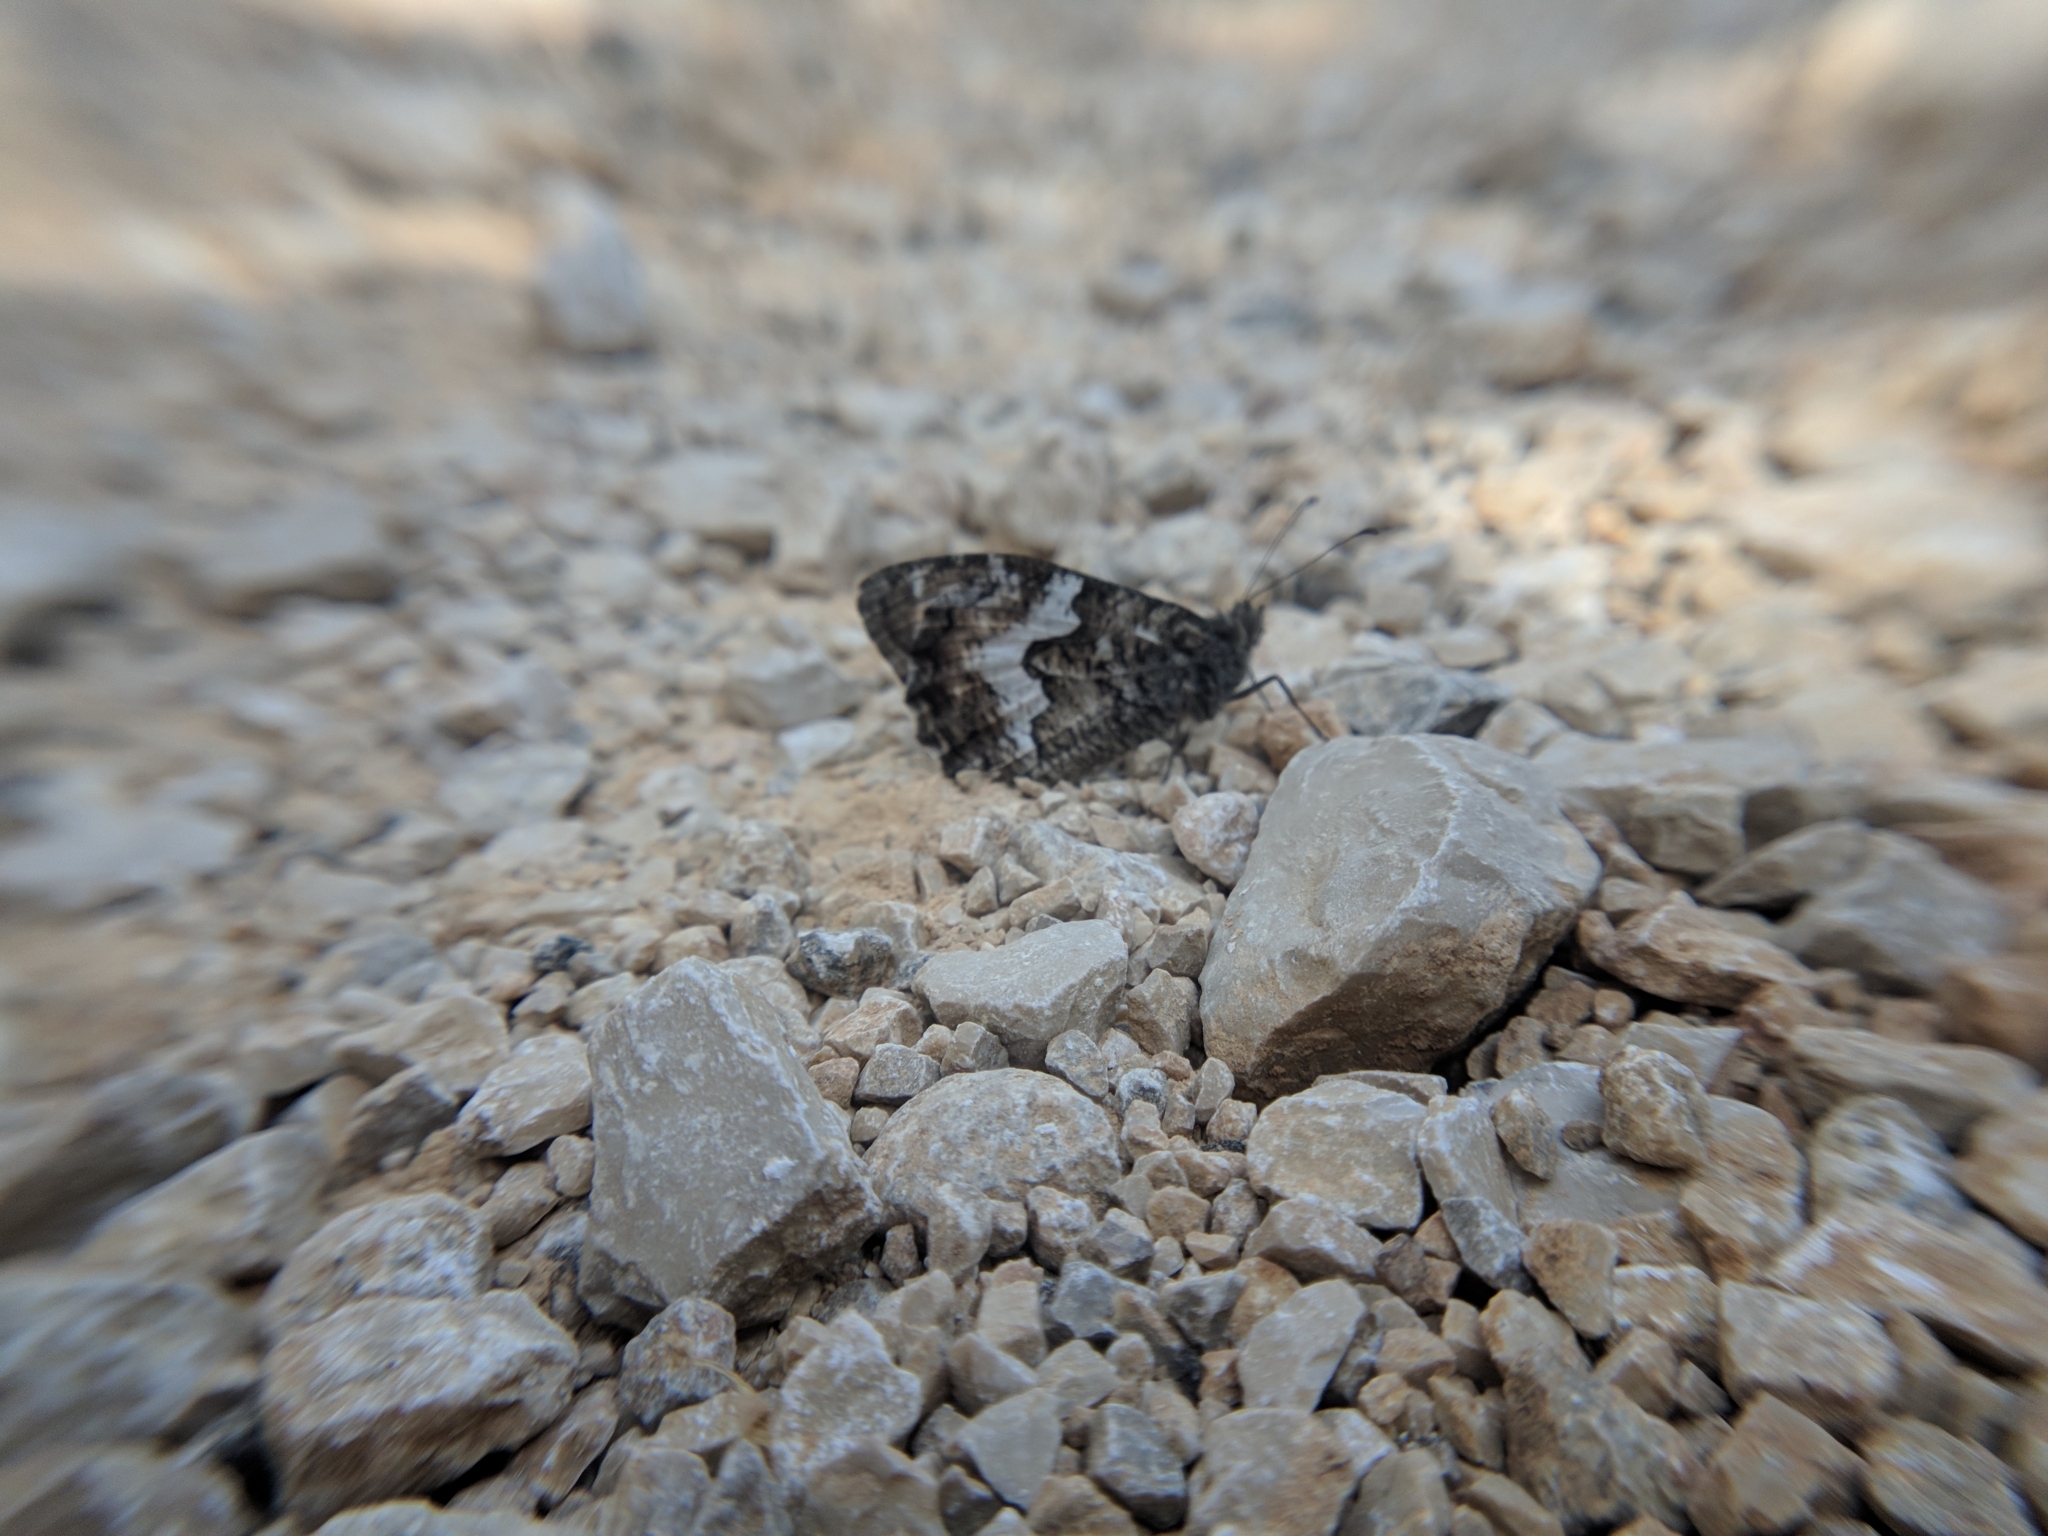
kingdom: Animalia
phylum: Arthropoda
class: Insecta
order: Lepidoptera
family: Nymphalidae
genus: Hipparchia
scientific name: Hipparchia semele
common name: Grayling
